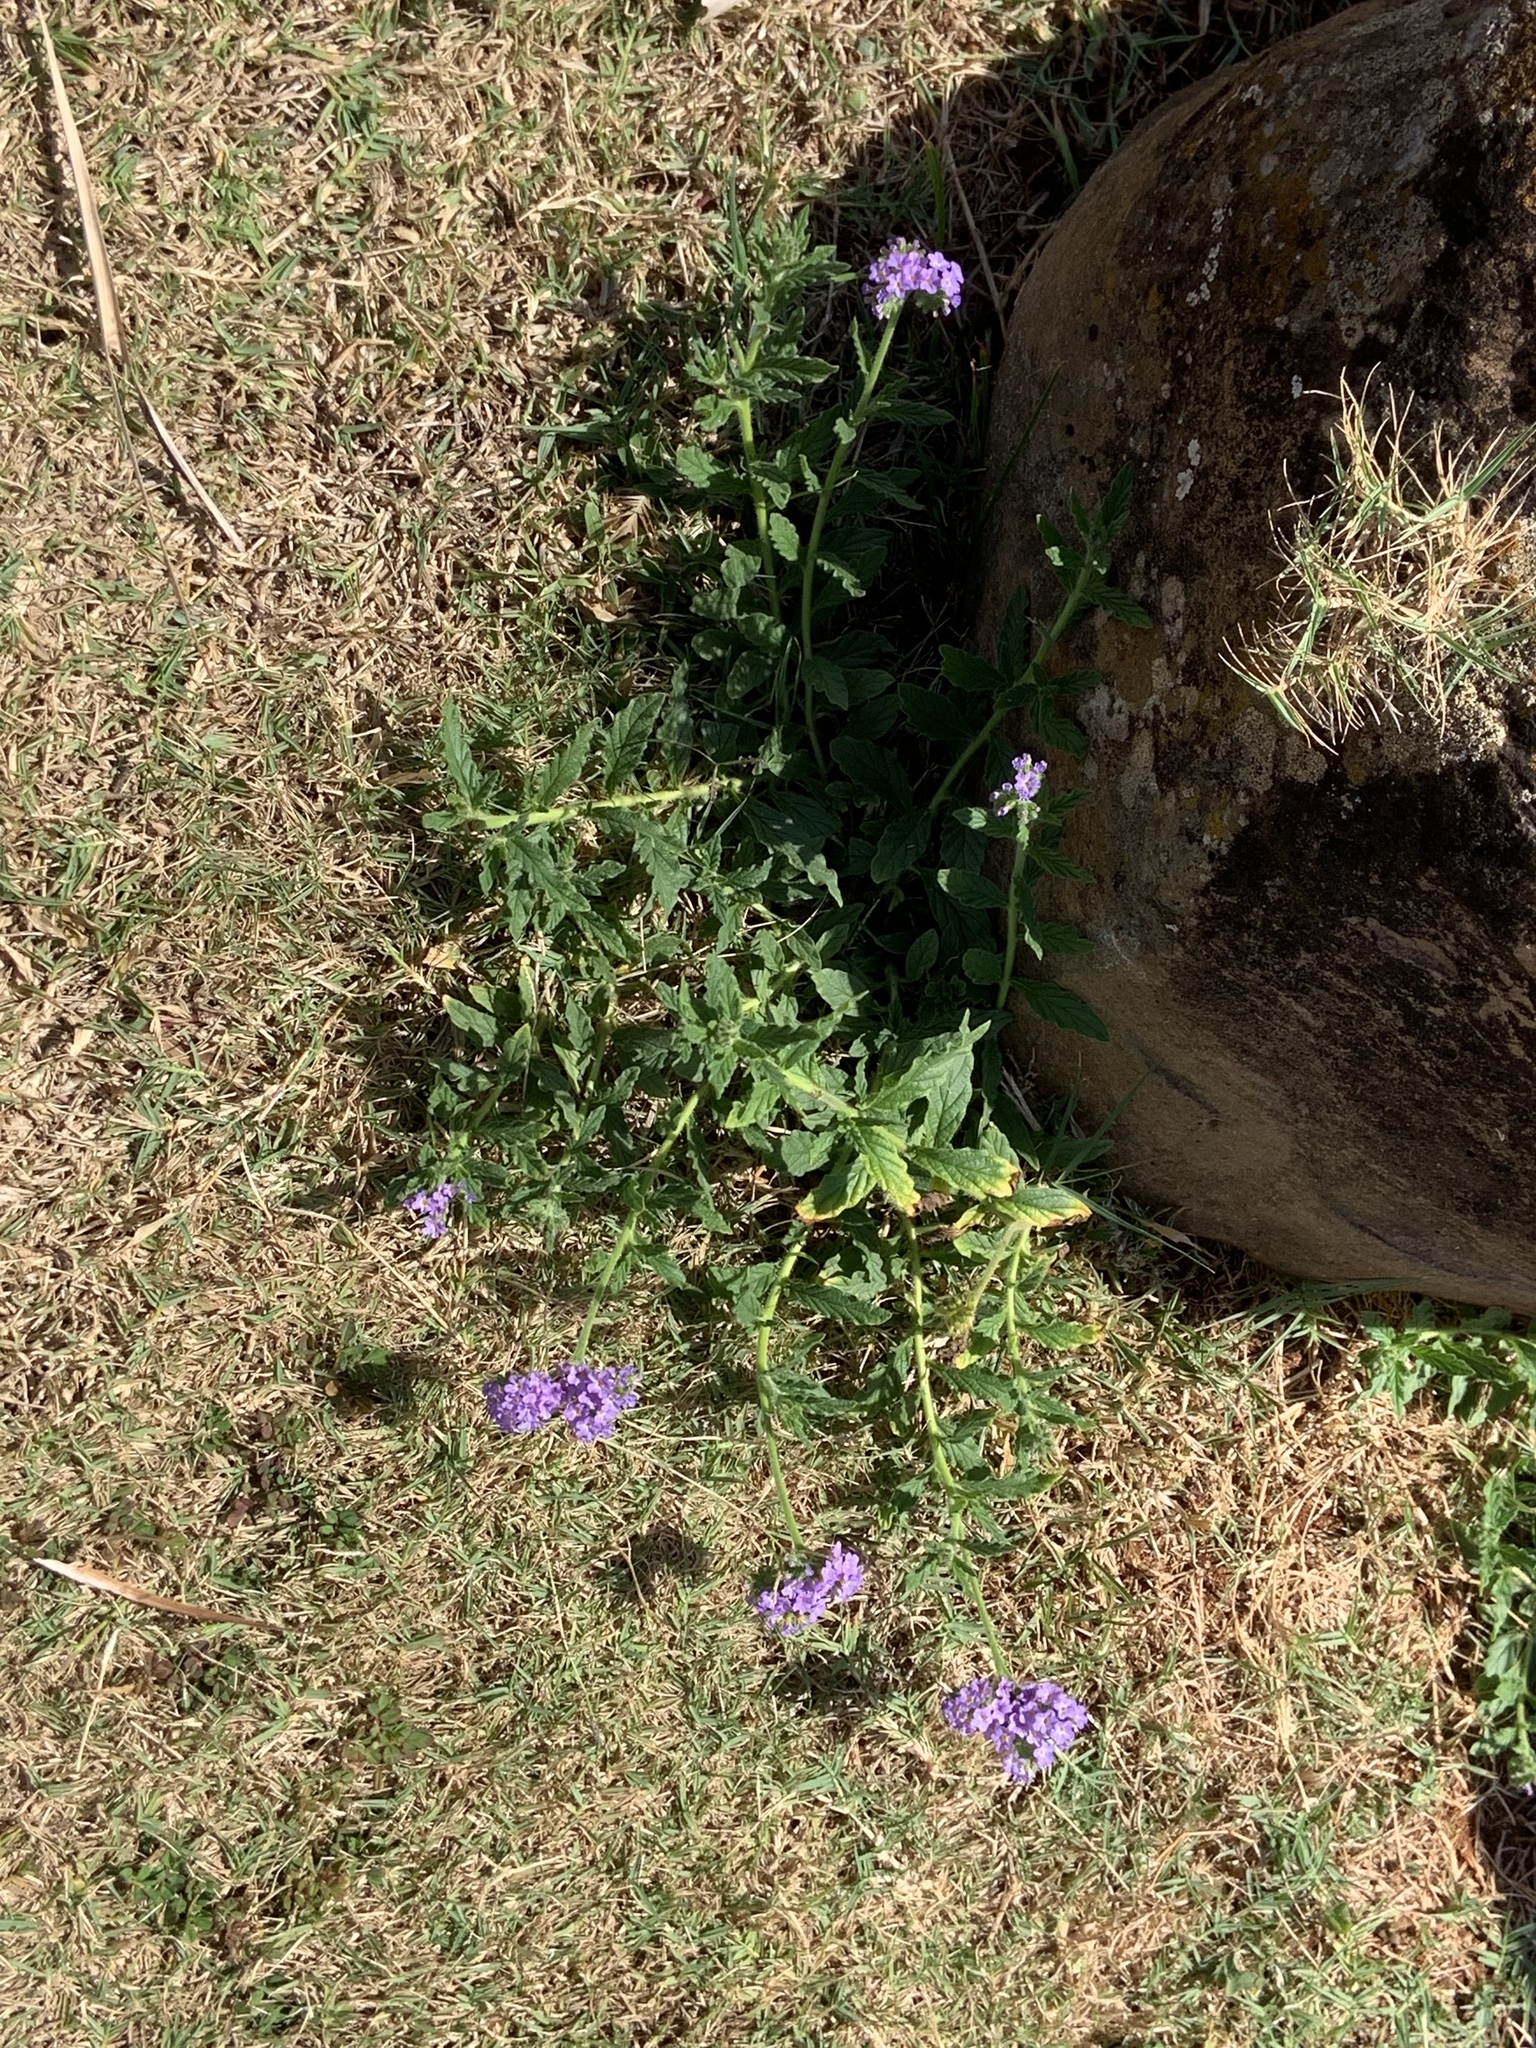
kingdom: Plantae
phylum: Tracheophyta
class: Magnoliopsida
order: Boraginales
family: Heliotropiaceae
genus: Heliotropium
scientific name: Heliotropium amplexicaule
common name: Clasping heliotrope
